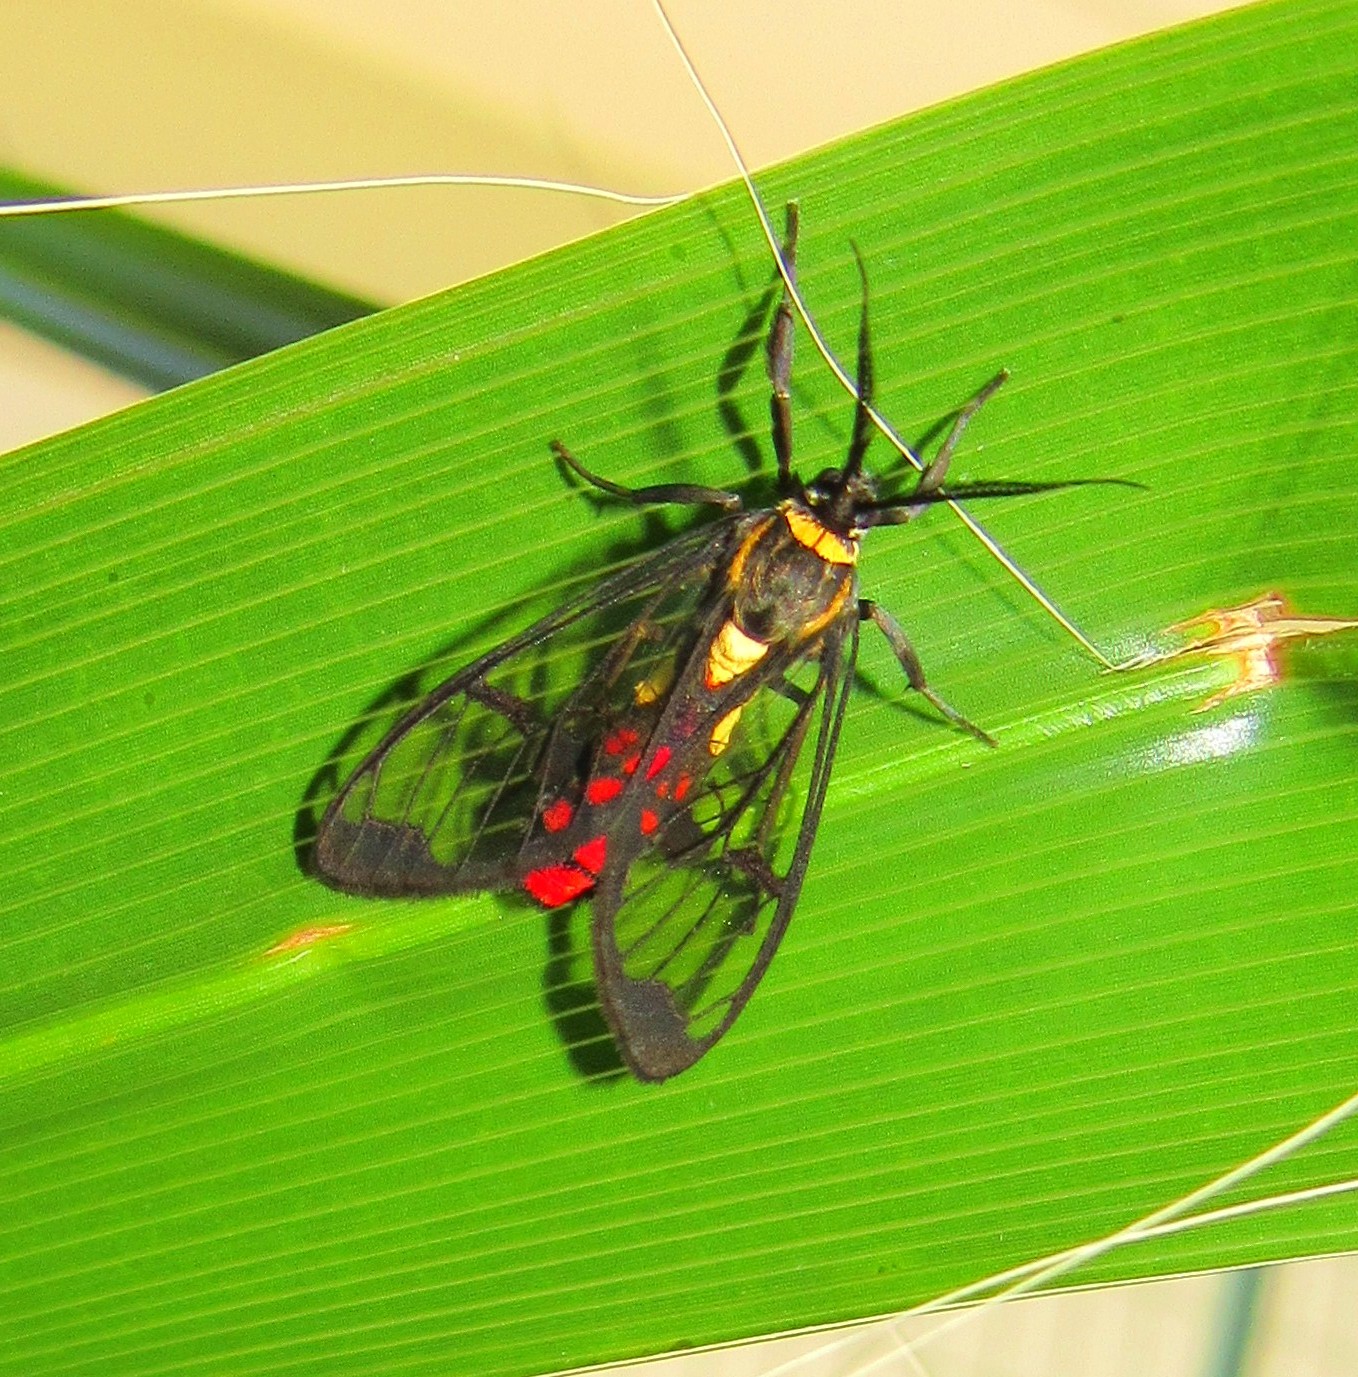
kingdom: Animalia
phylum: Arthropoda
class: Insecta
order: Lepidoptera
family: Erebidae
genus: Argyroeides
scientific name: Argyroeides sanguinea
